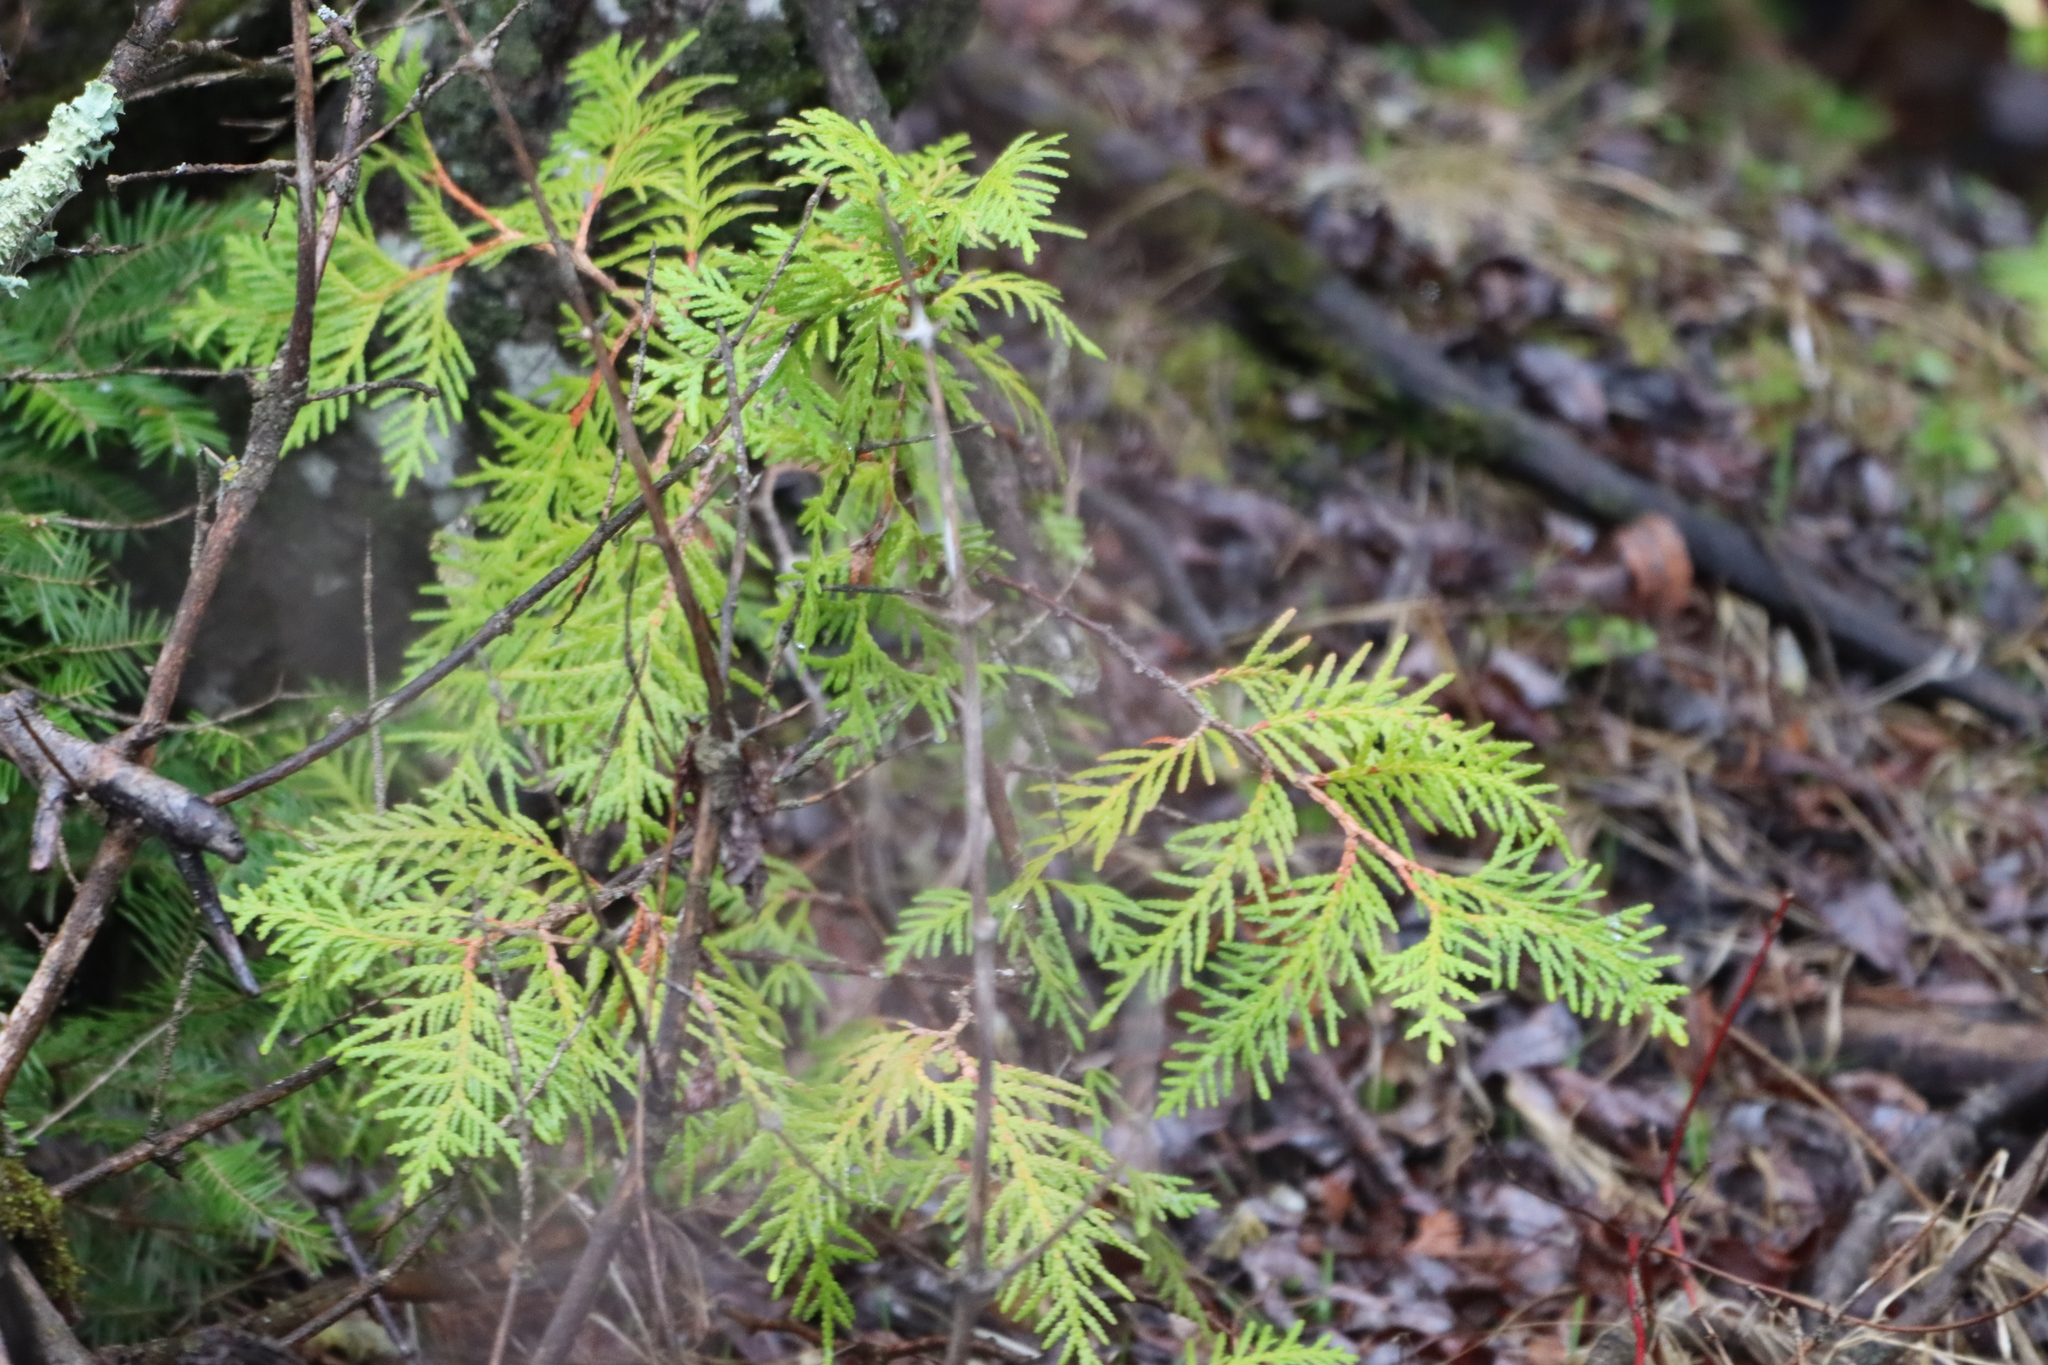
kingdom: Plantae
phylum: Tracheophyta
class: Pinopsida
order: Pinales
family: Cupressaceae
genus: Thuja
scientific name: Thuja occidentalis
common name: Northern white-cedar
